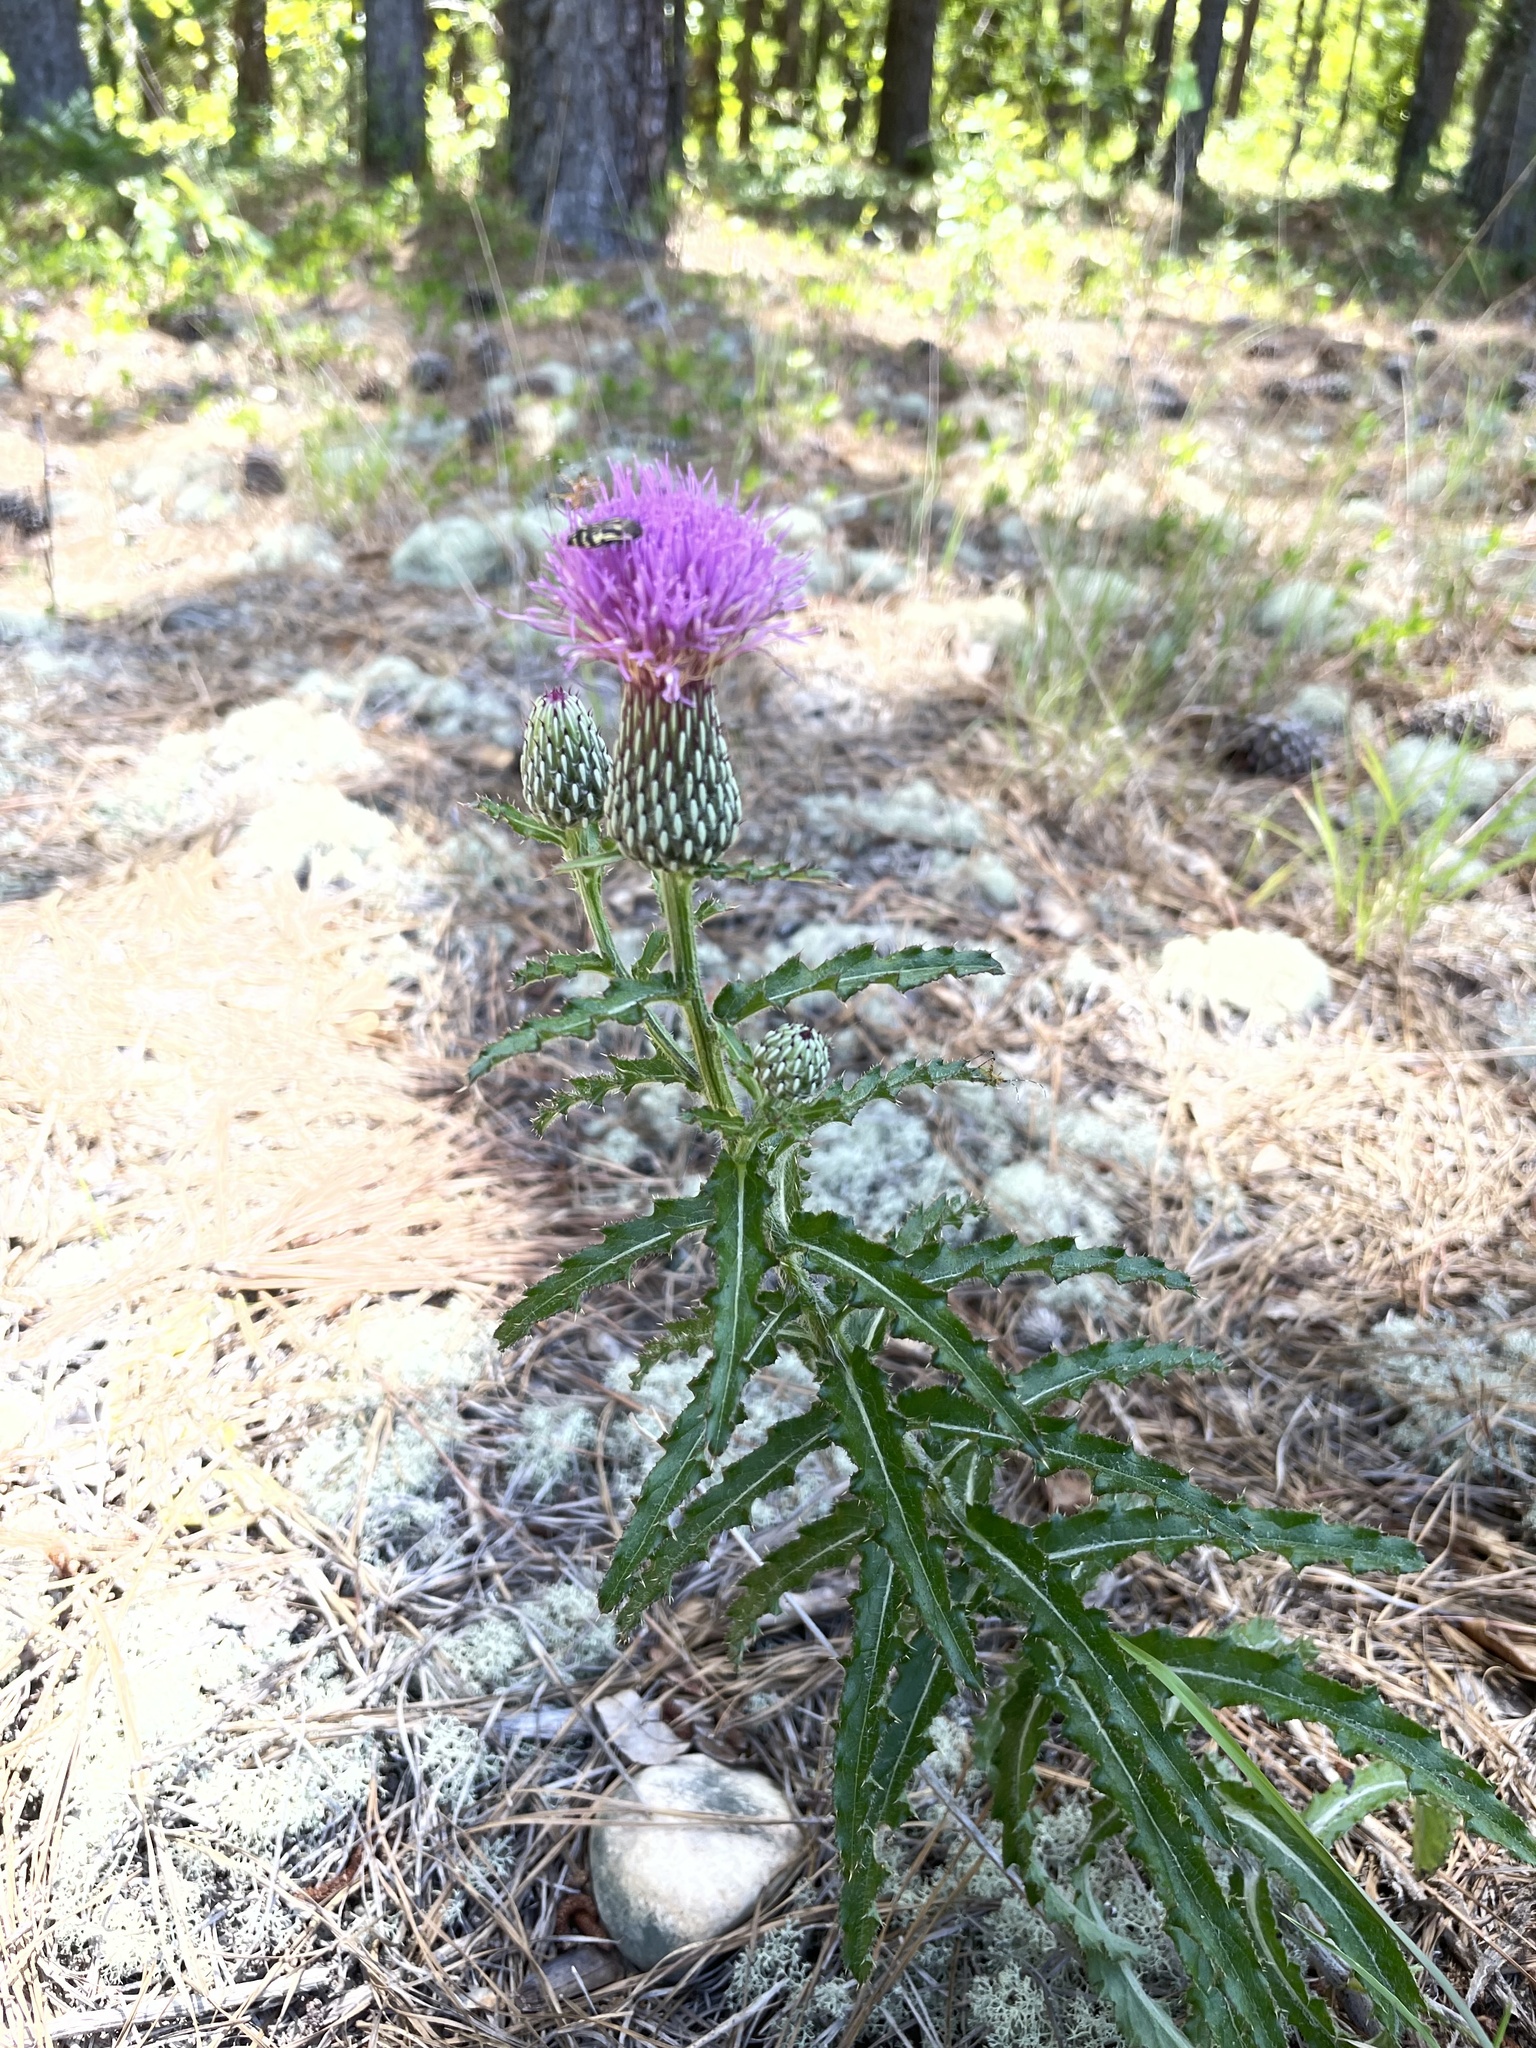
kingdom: Plantae
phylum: Tracheophyta
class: Magnoliopsida
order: Asterales
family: Asteraceae
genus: Cirsium
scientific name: Cirsium repandum
